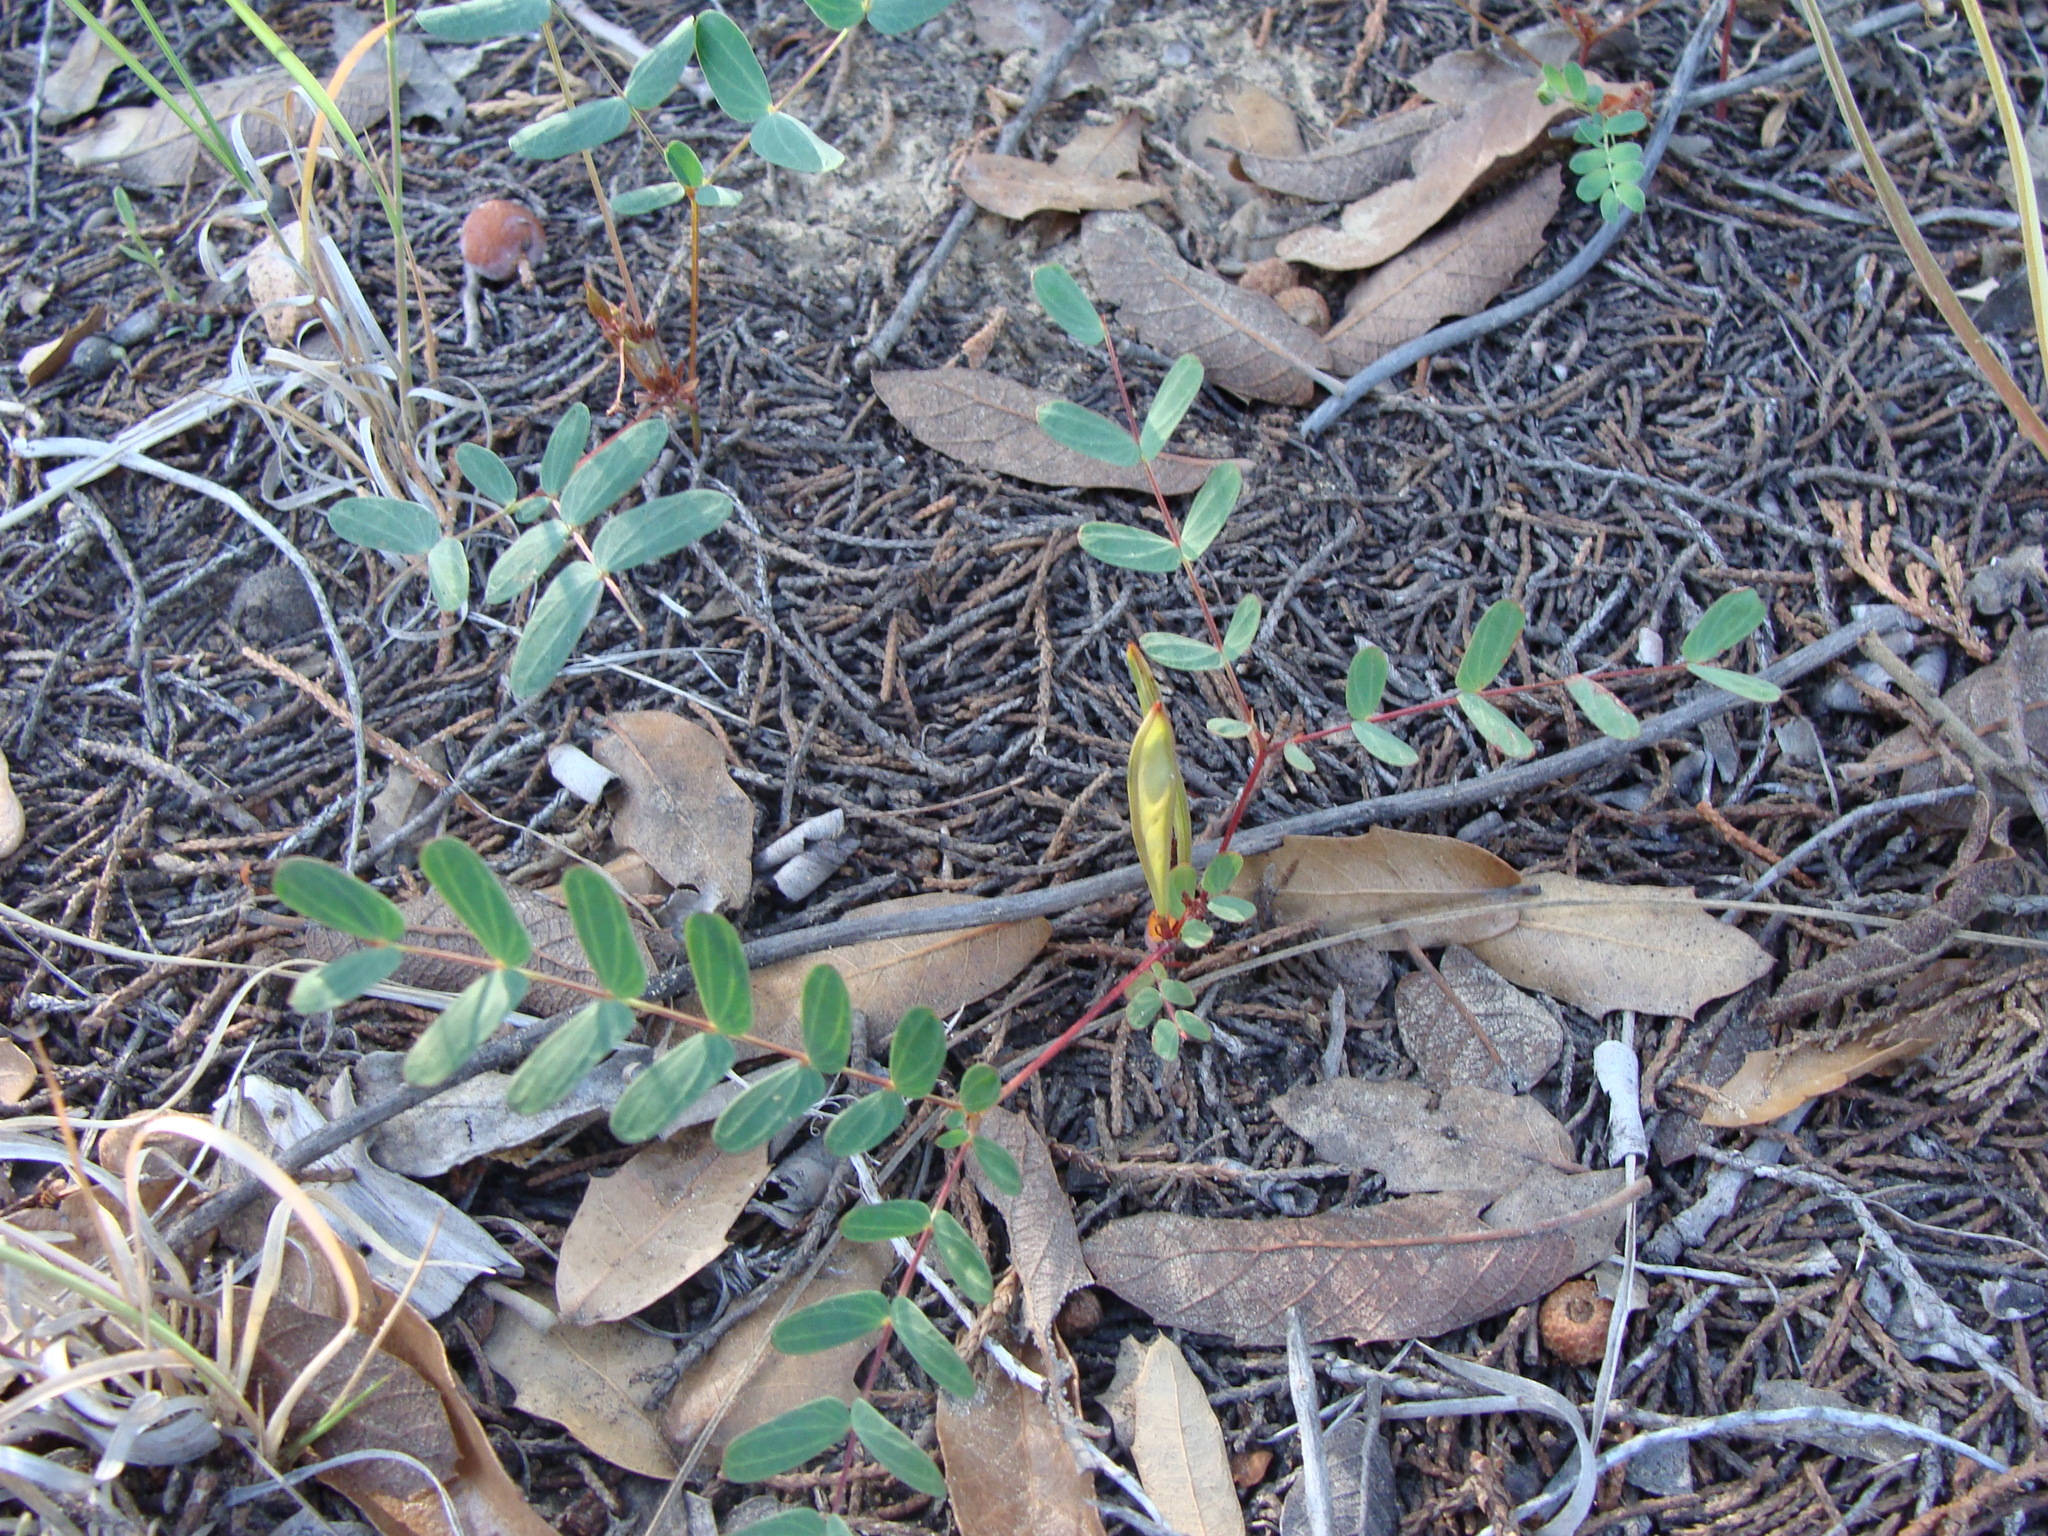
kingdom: Plantae
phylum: Tracheophyta
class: Magnoliopsida
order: Fabales
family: Fabaceae
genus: Calliandra
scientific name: Calliandra humilis
